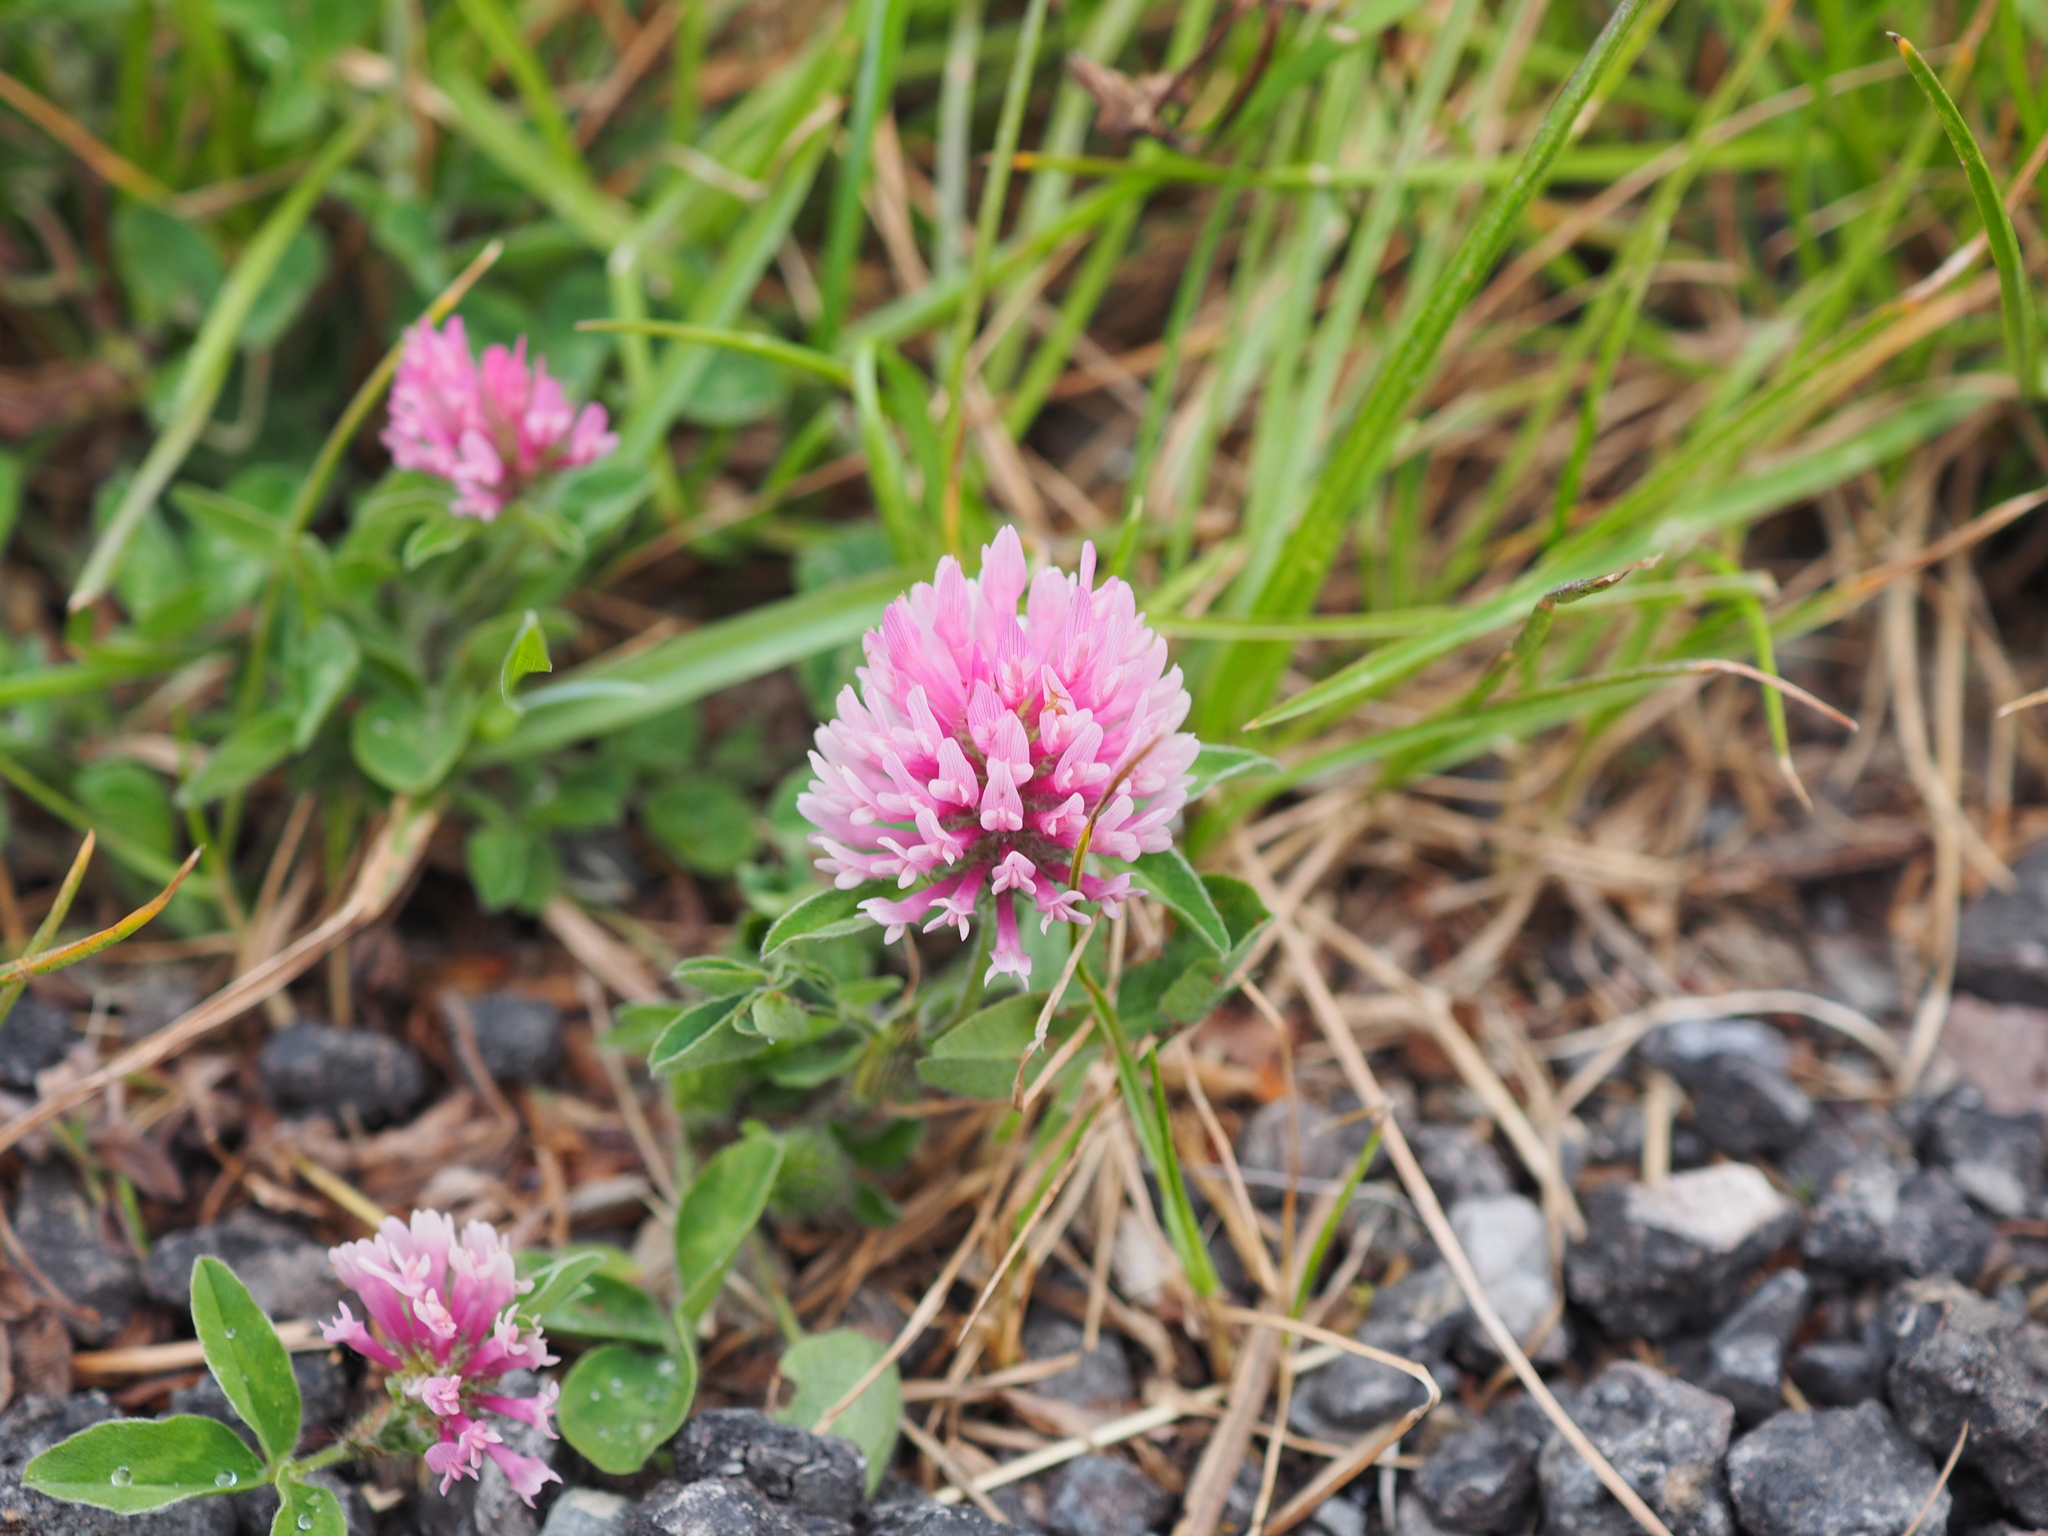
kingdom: Plantae
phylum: Tracheophyta
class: Magnoliopsida
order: Fabales
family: Fabaceae
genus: Trifolium
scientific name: Trifolium pratense
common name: Red clover
